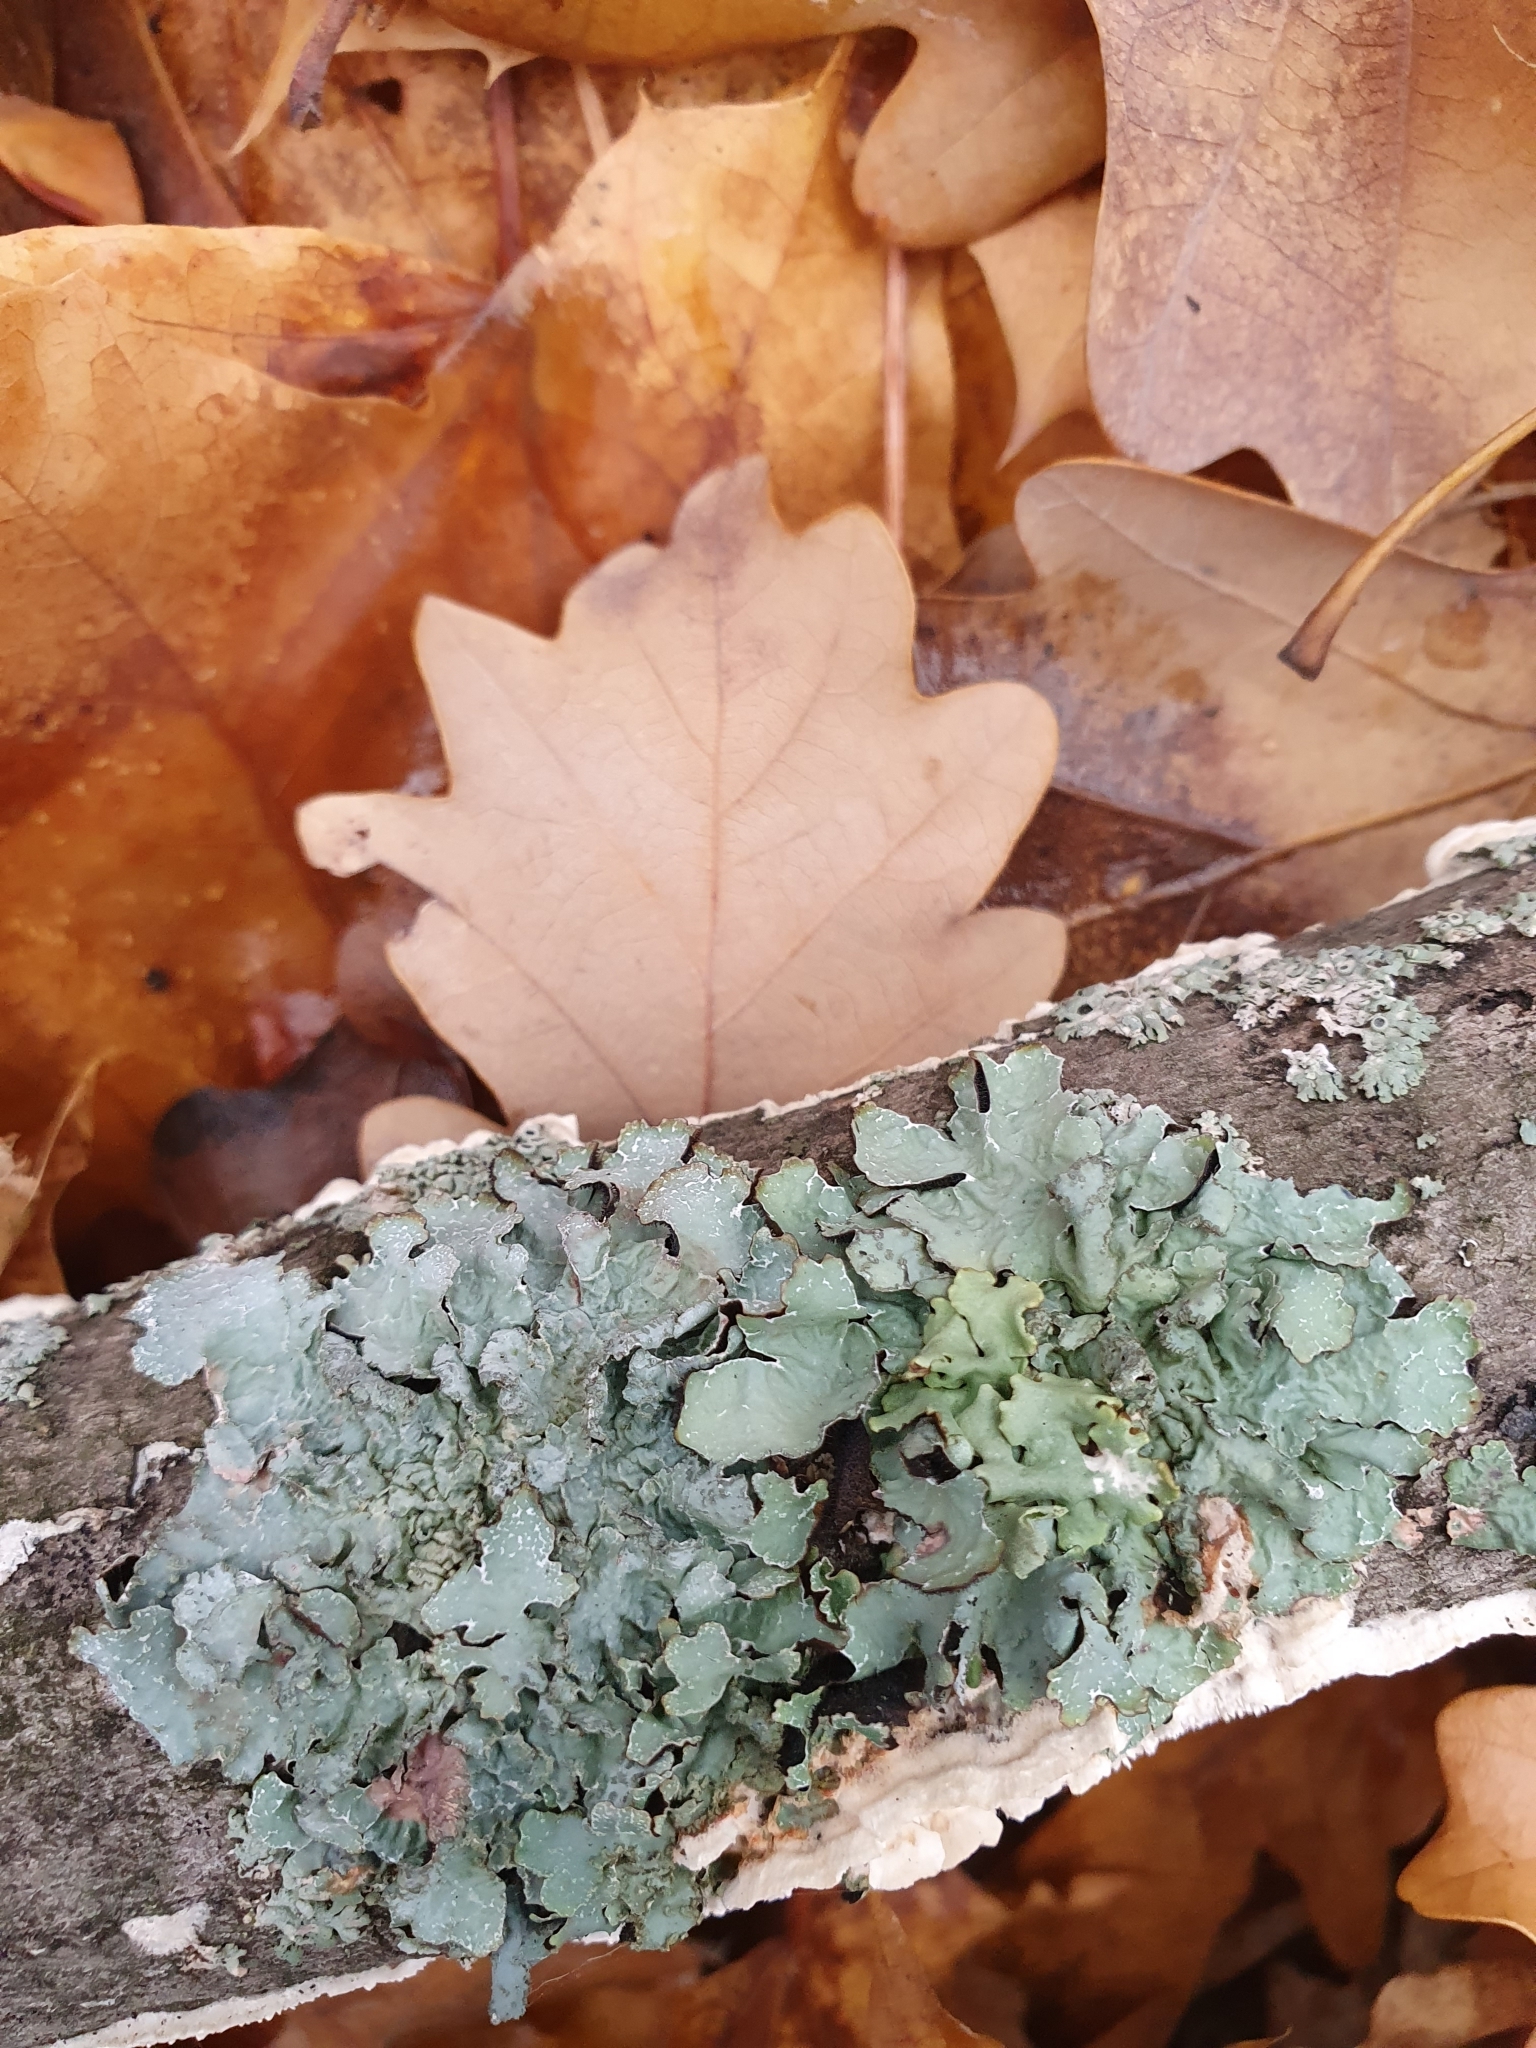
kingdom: Fungi
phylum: Ascomycota
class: Lecanoromycetes
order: Lecanorales
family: Parmeliaceae
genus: Parmelia
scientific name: Parmelia sulcata
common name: Netted shield lichen
